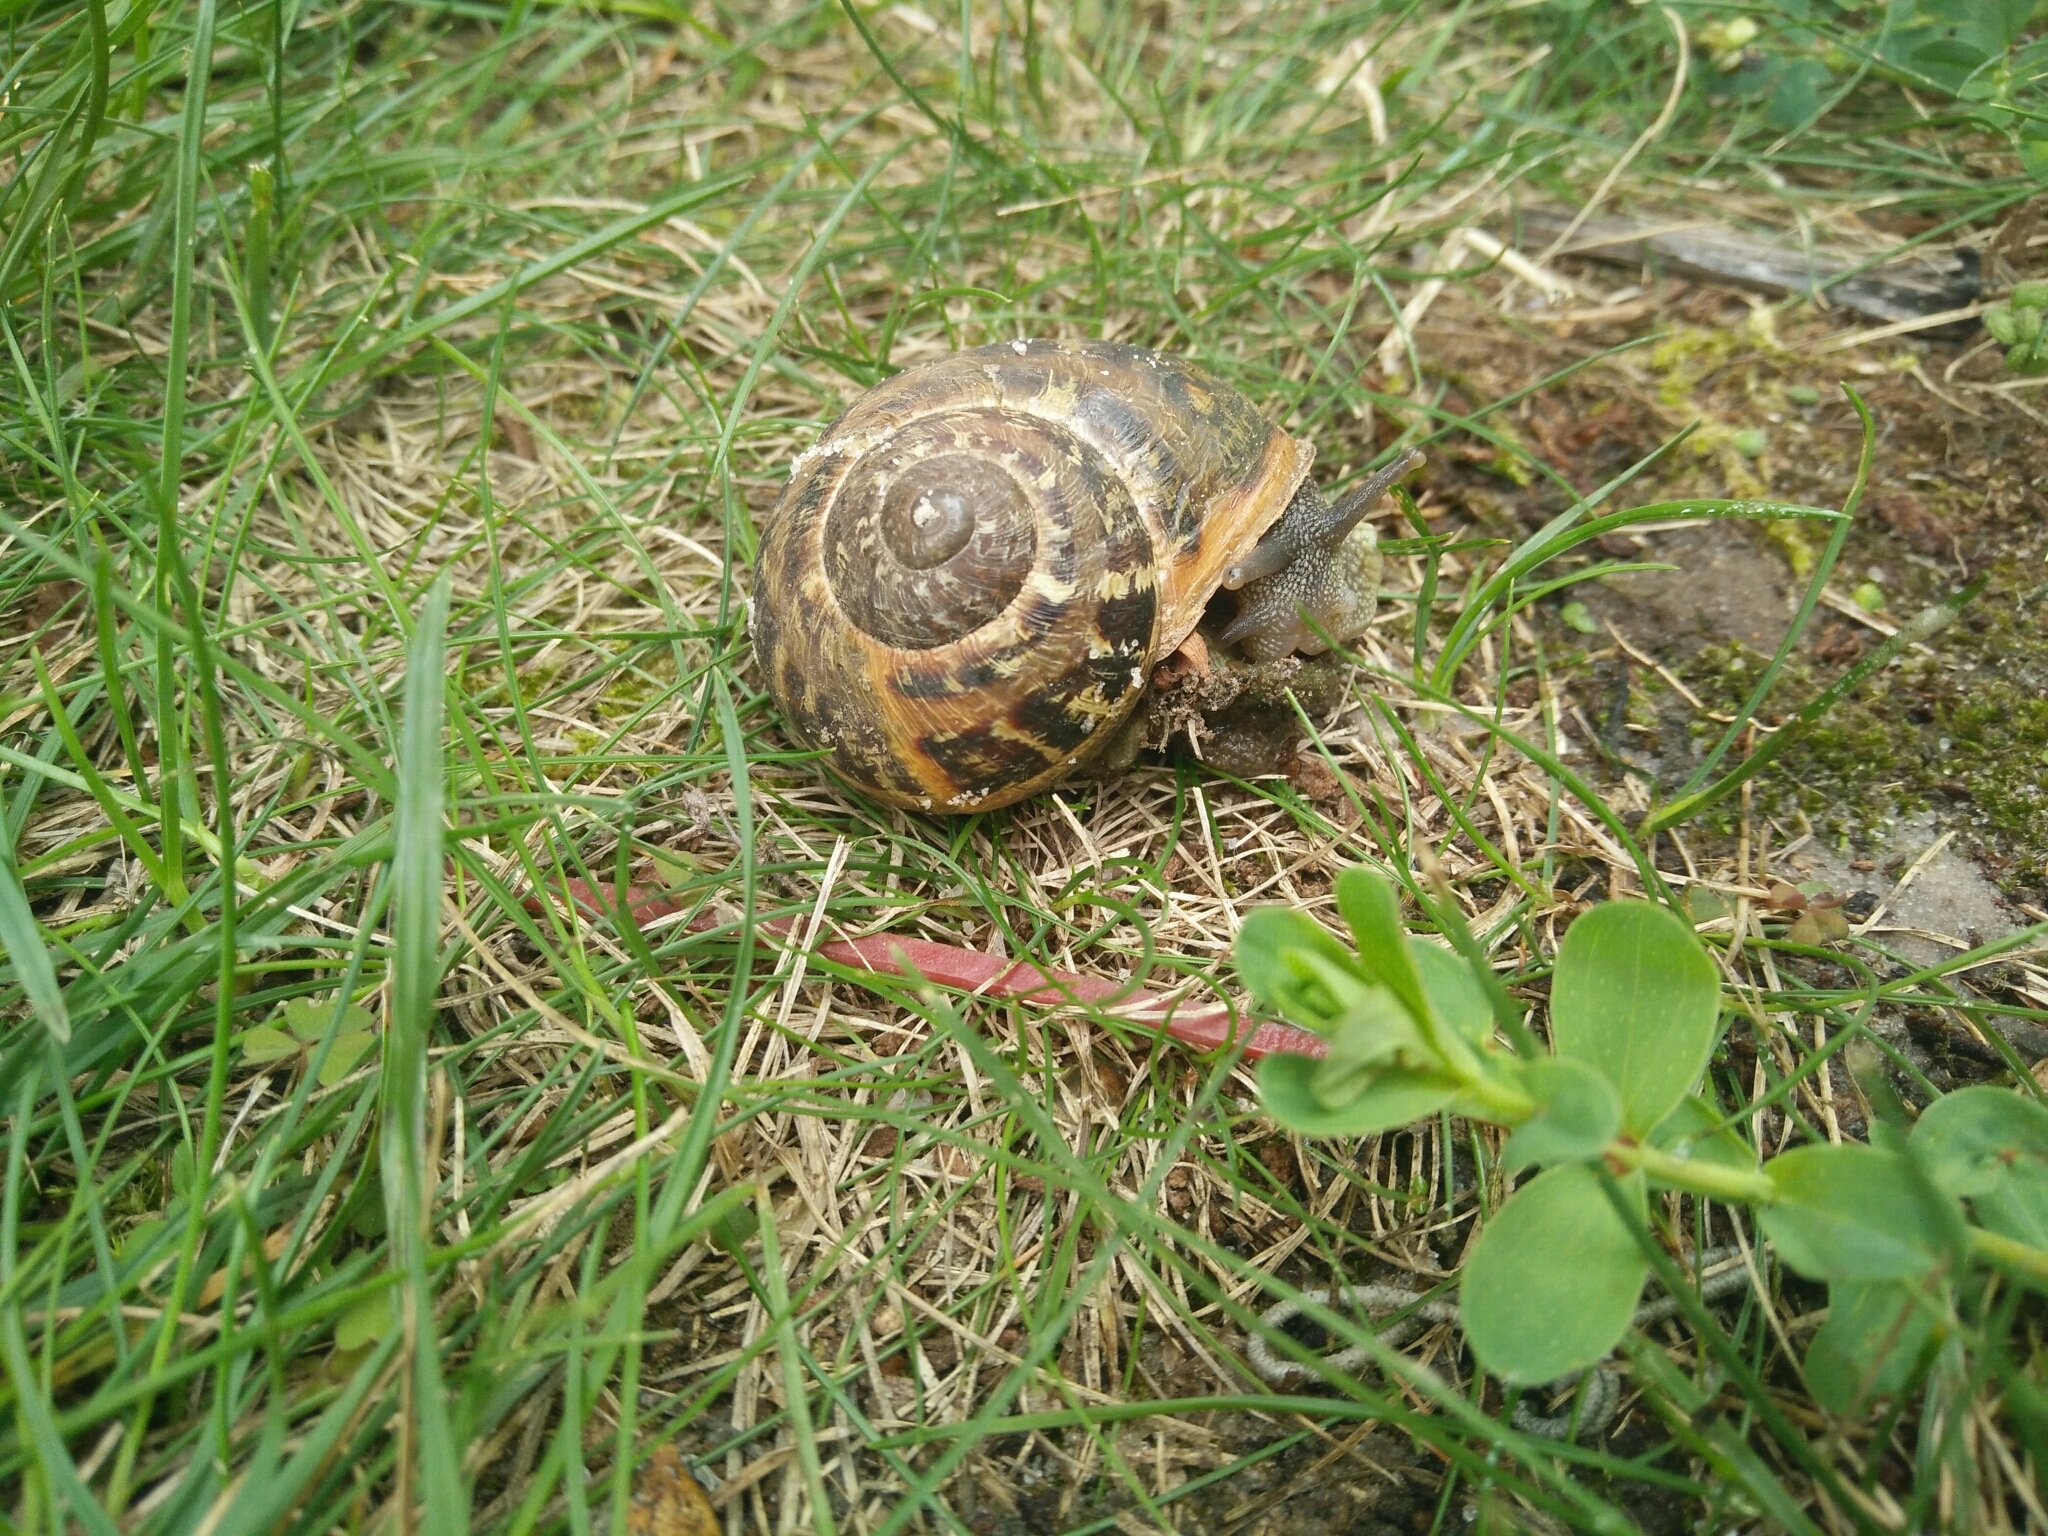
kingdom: Animalia
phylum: Mollusca
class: Gastropoda
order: Stylommatophora
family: Helicidae
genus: Cornu
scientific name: Cornu aspersum
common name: Brown garden snail
